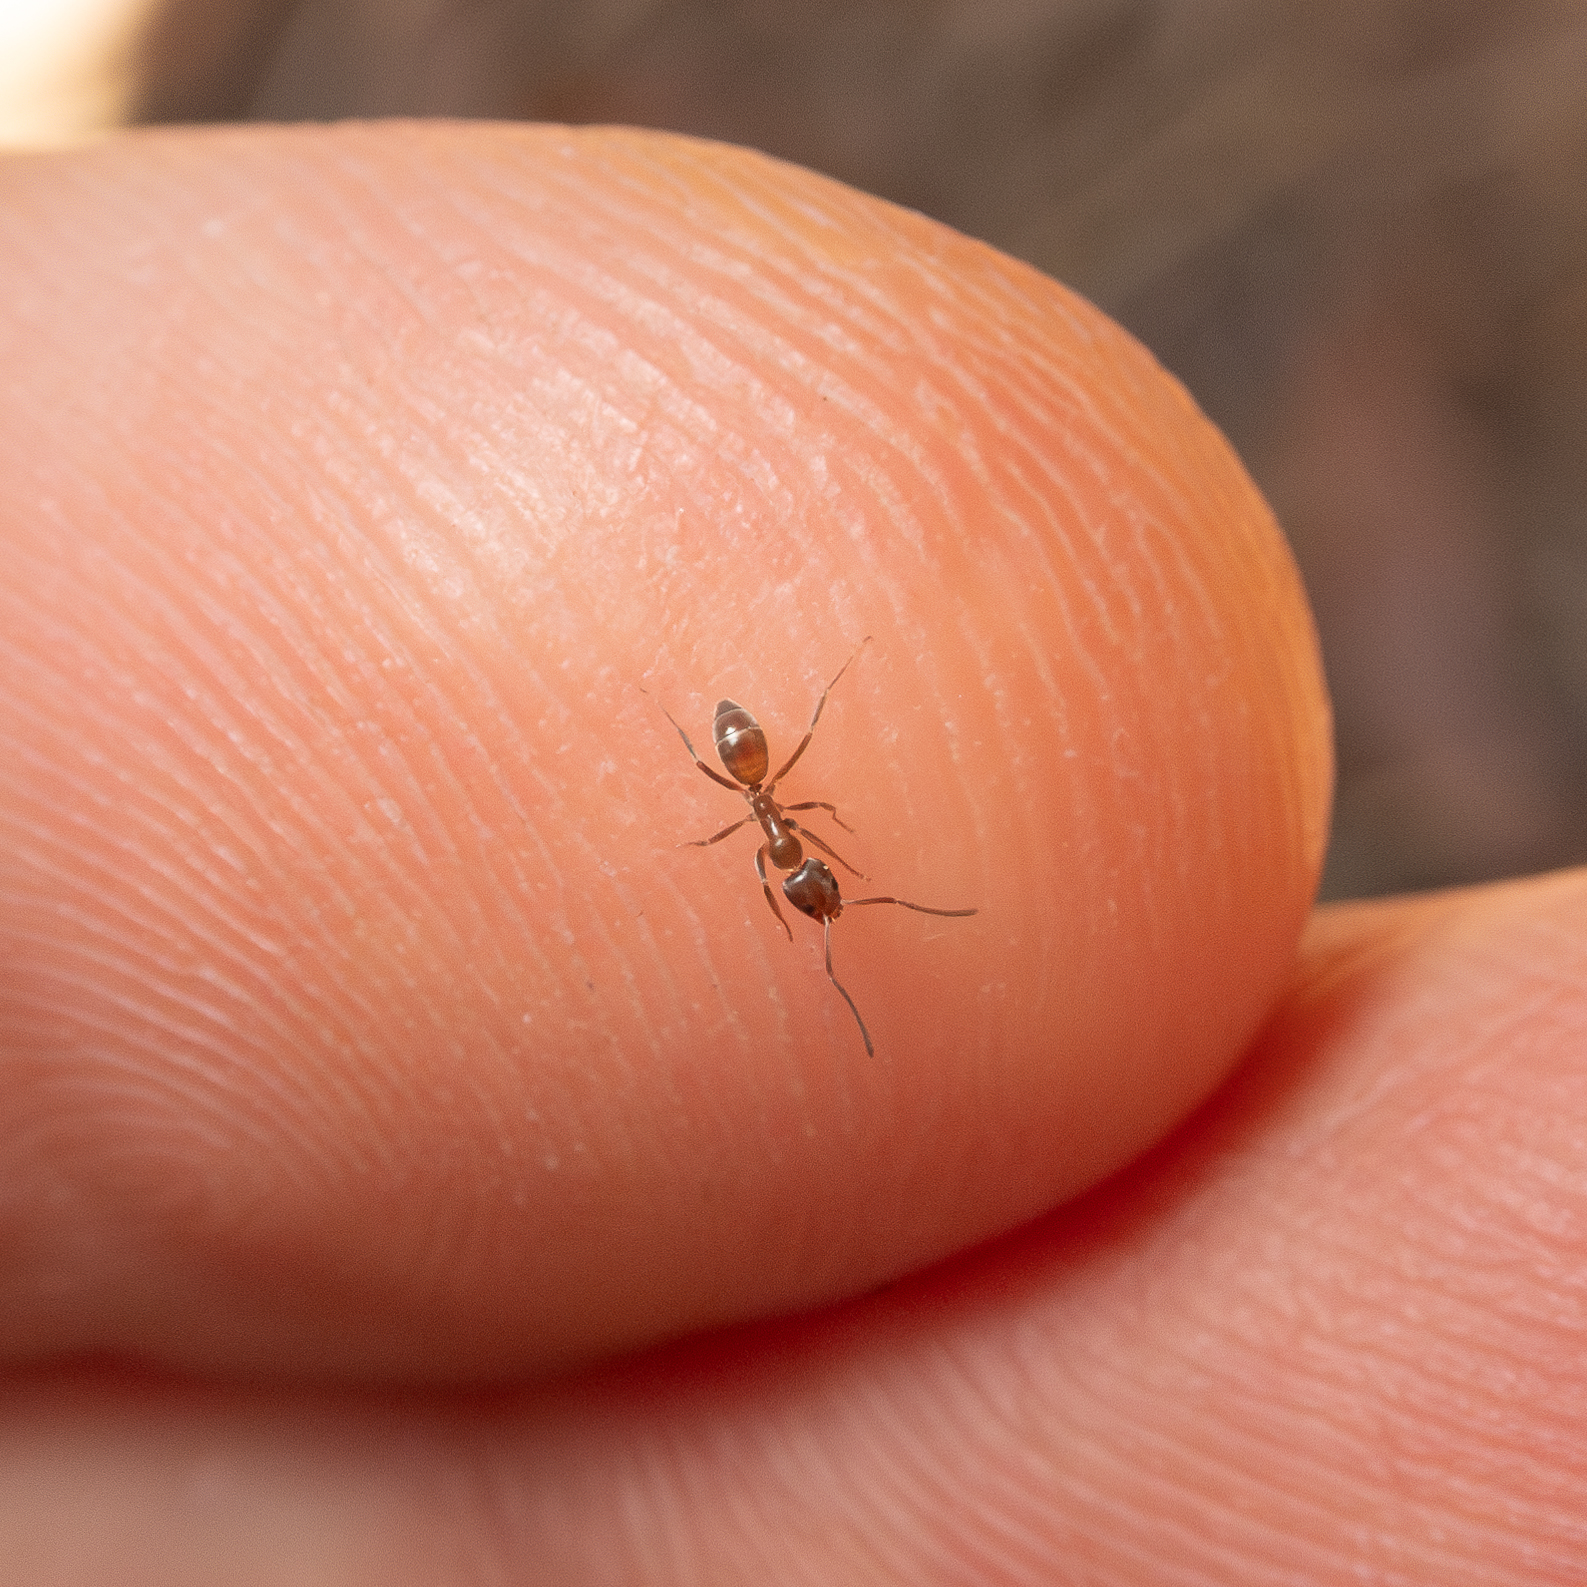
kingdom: Animalia
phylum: Arthropoda
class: Insecta
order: Hymenoptera
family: Formicidae
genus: Linepithema
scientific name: Linepithema humile
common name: Argentine ant
